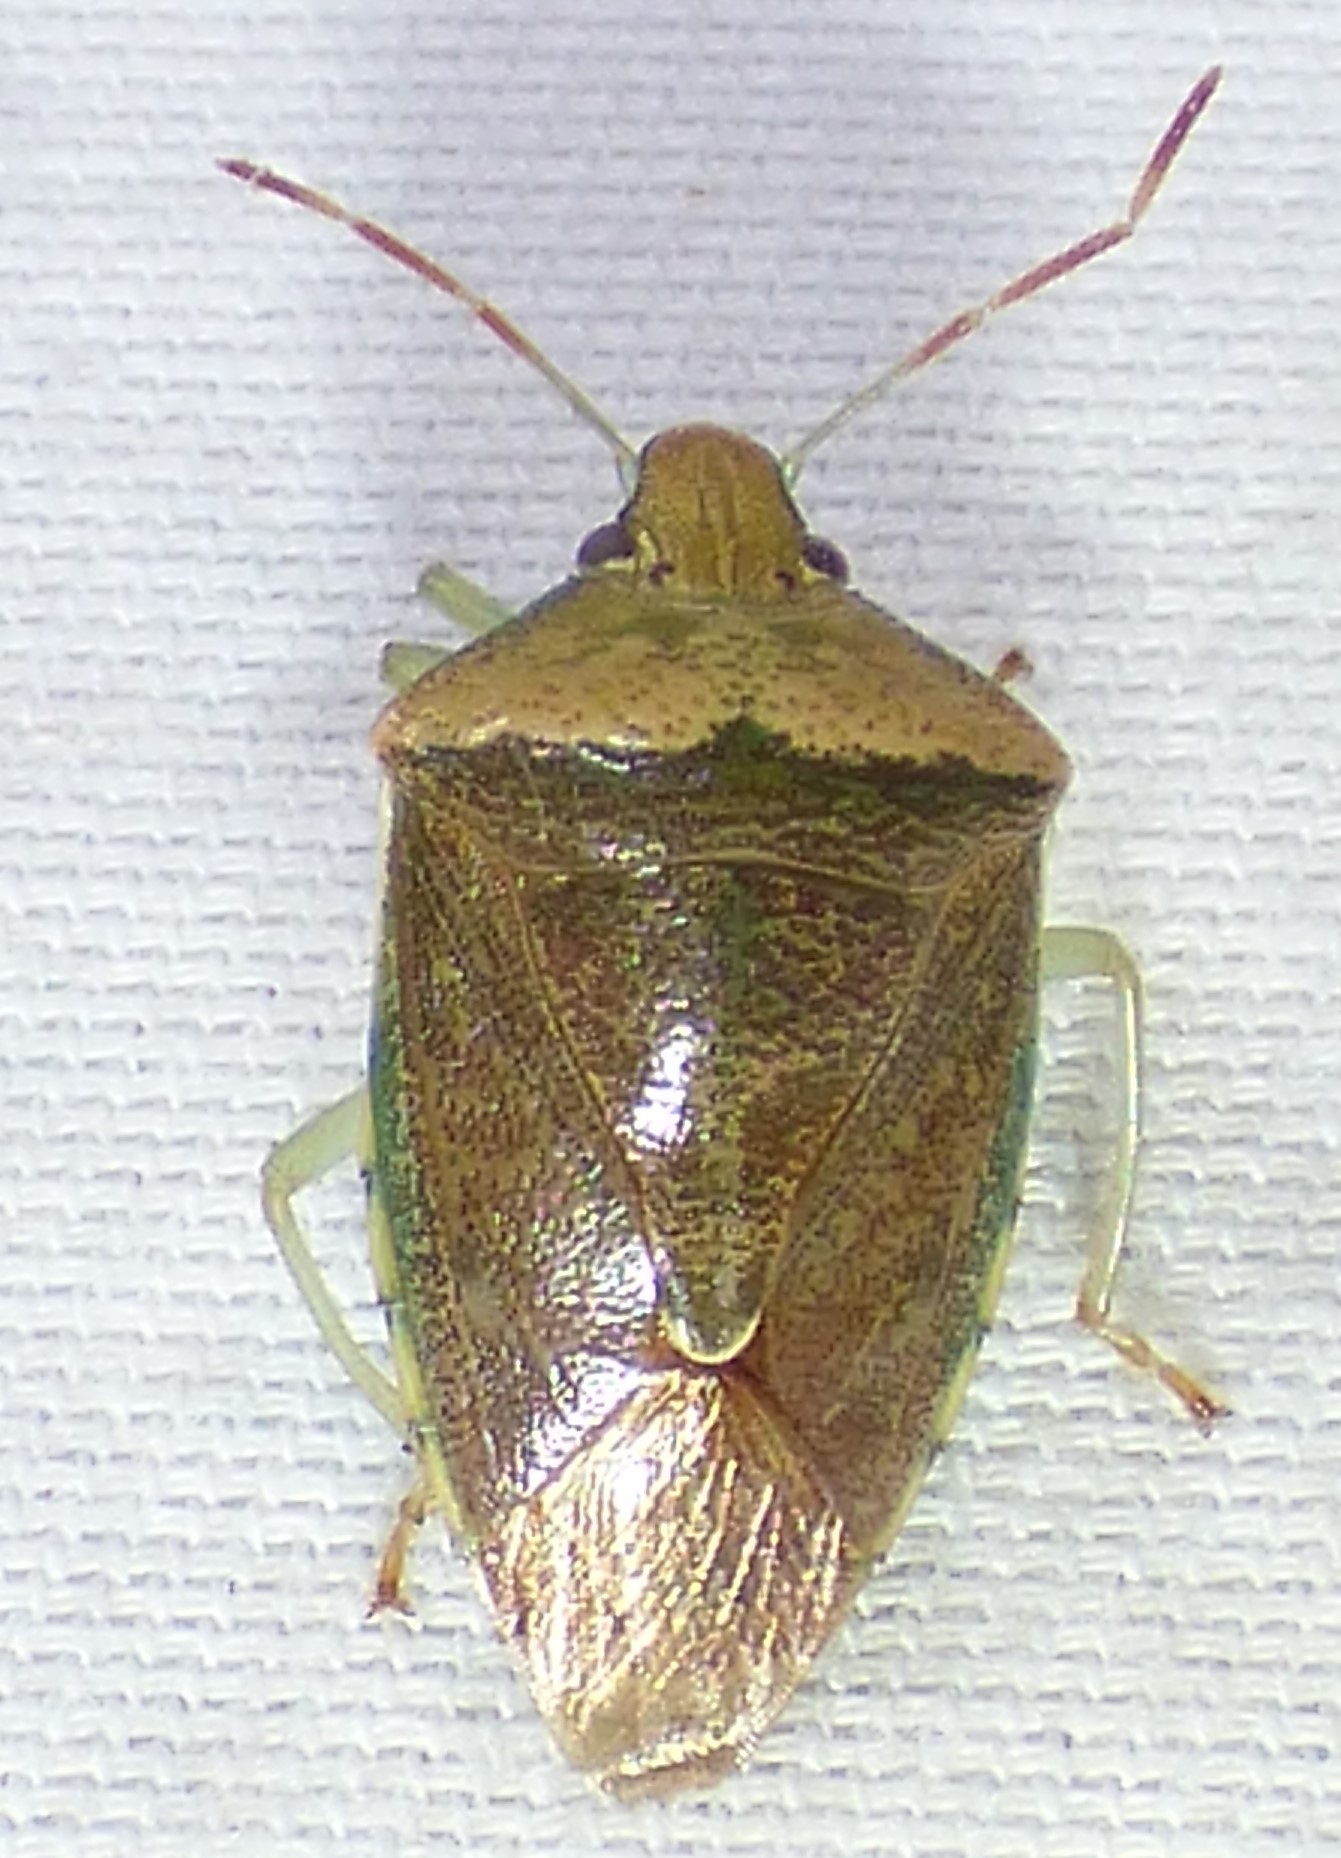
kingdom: Animalia
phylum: Arthropoda
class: Insecta
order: Hemiptera
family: Pentatomidae
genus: Banasa
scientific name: Banasa calva
